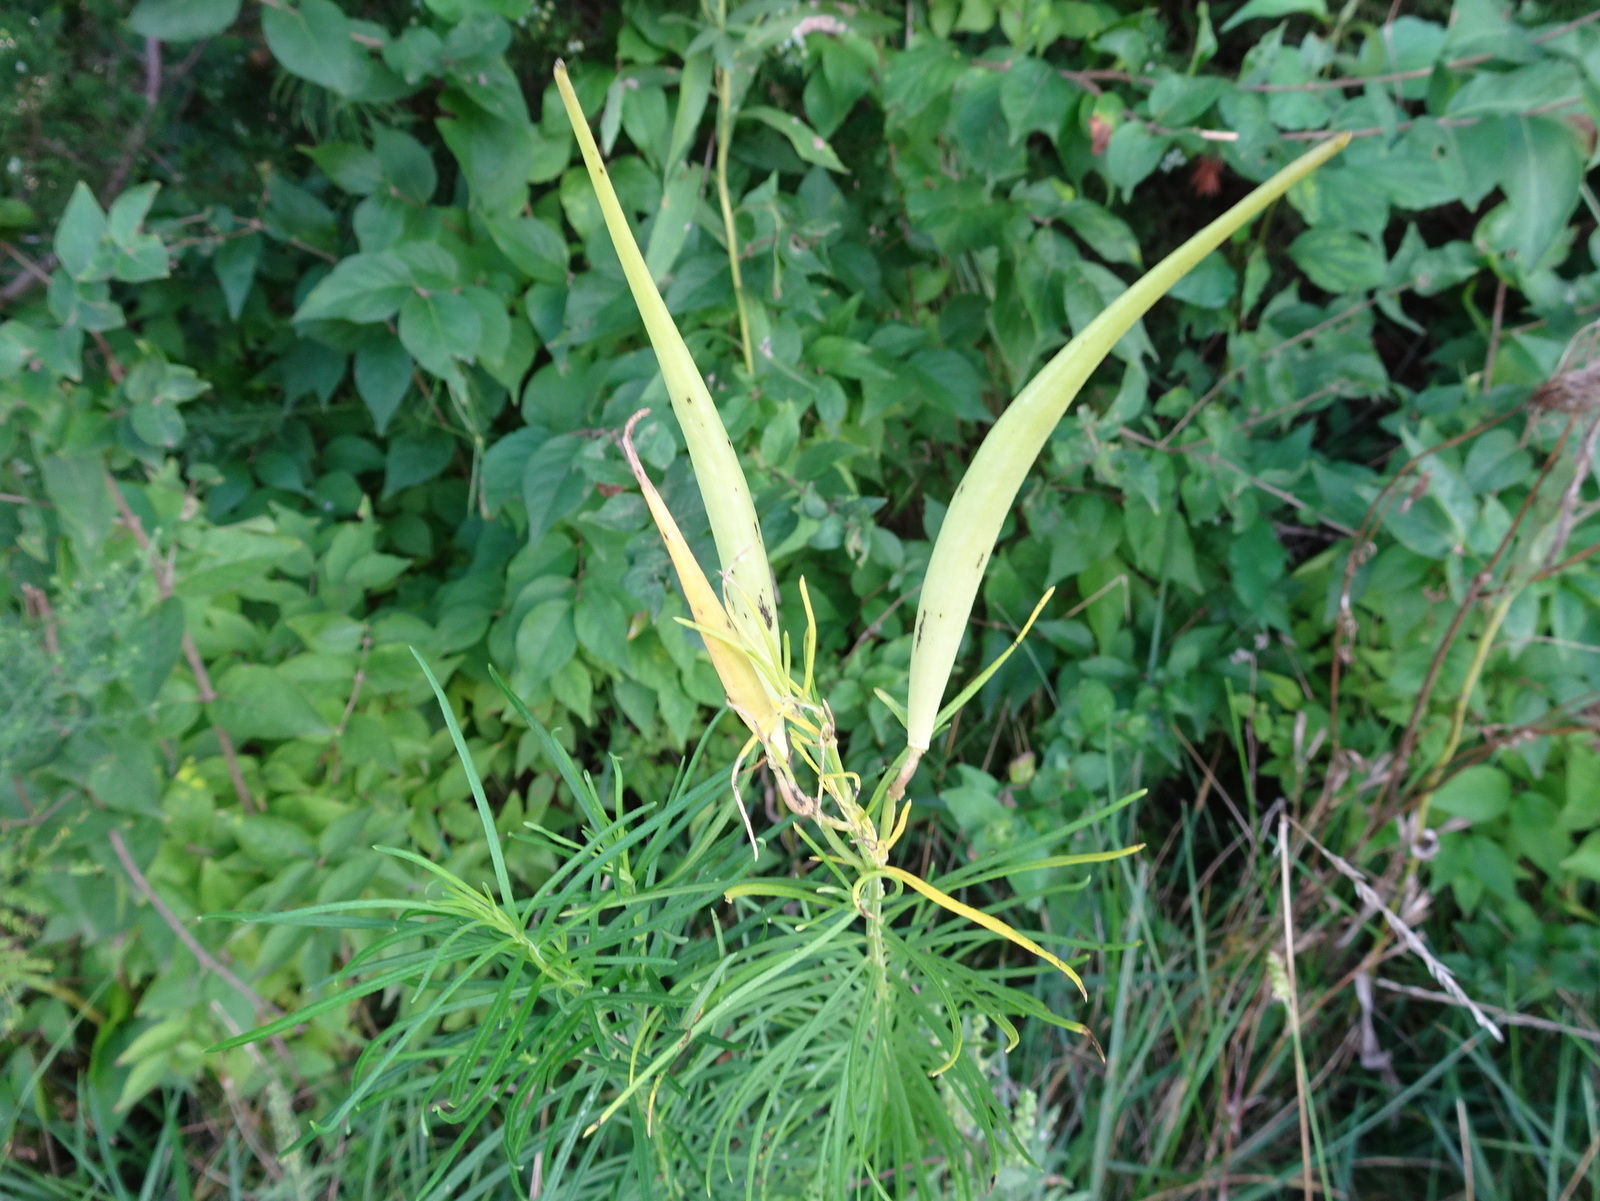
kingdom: Plantae
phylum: Tracheophyta
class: Magnoliopsida
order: Gentianales
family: Apocynaceae
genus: Asclepias
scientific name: Asclepias verticillata
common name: Eastern whorled milkweed
